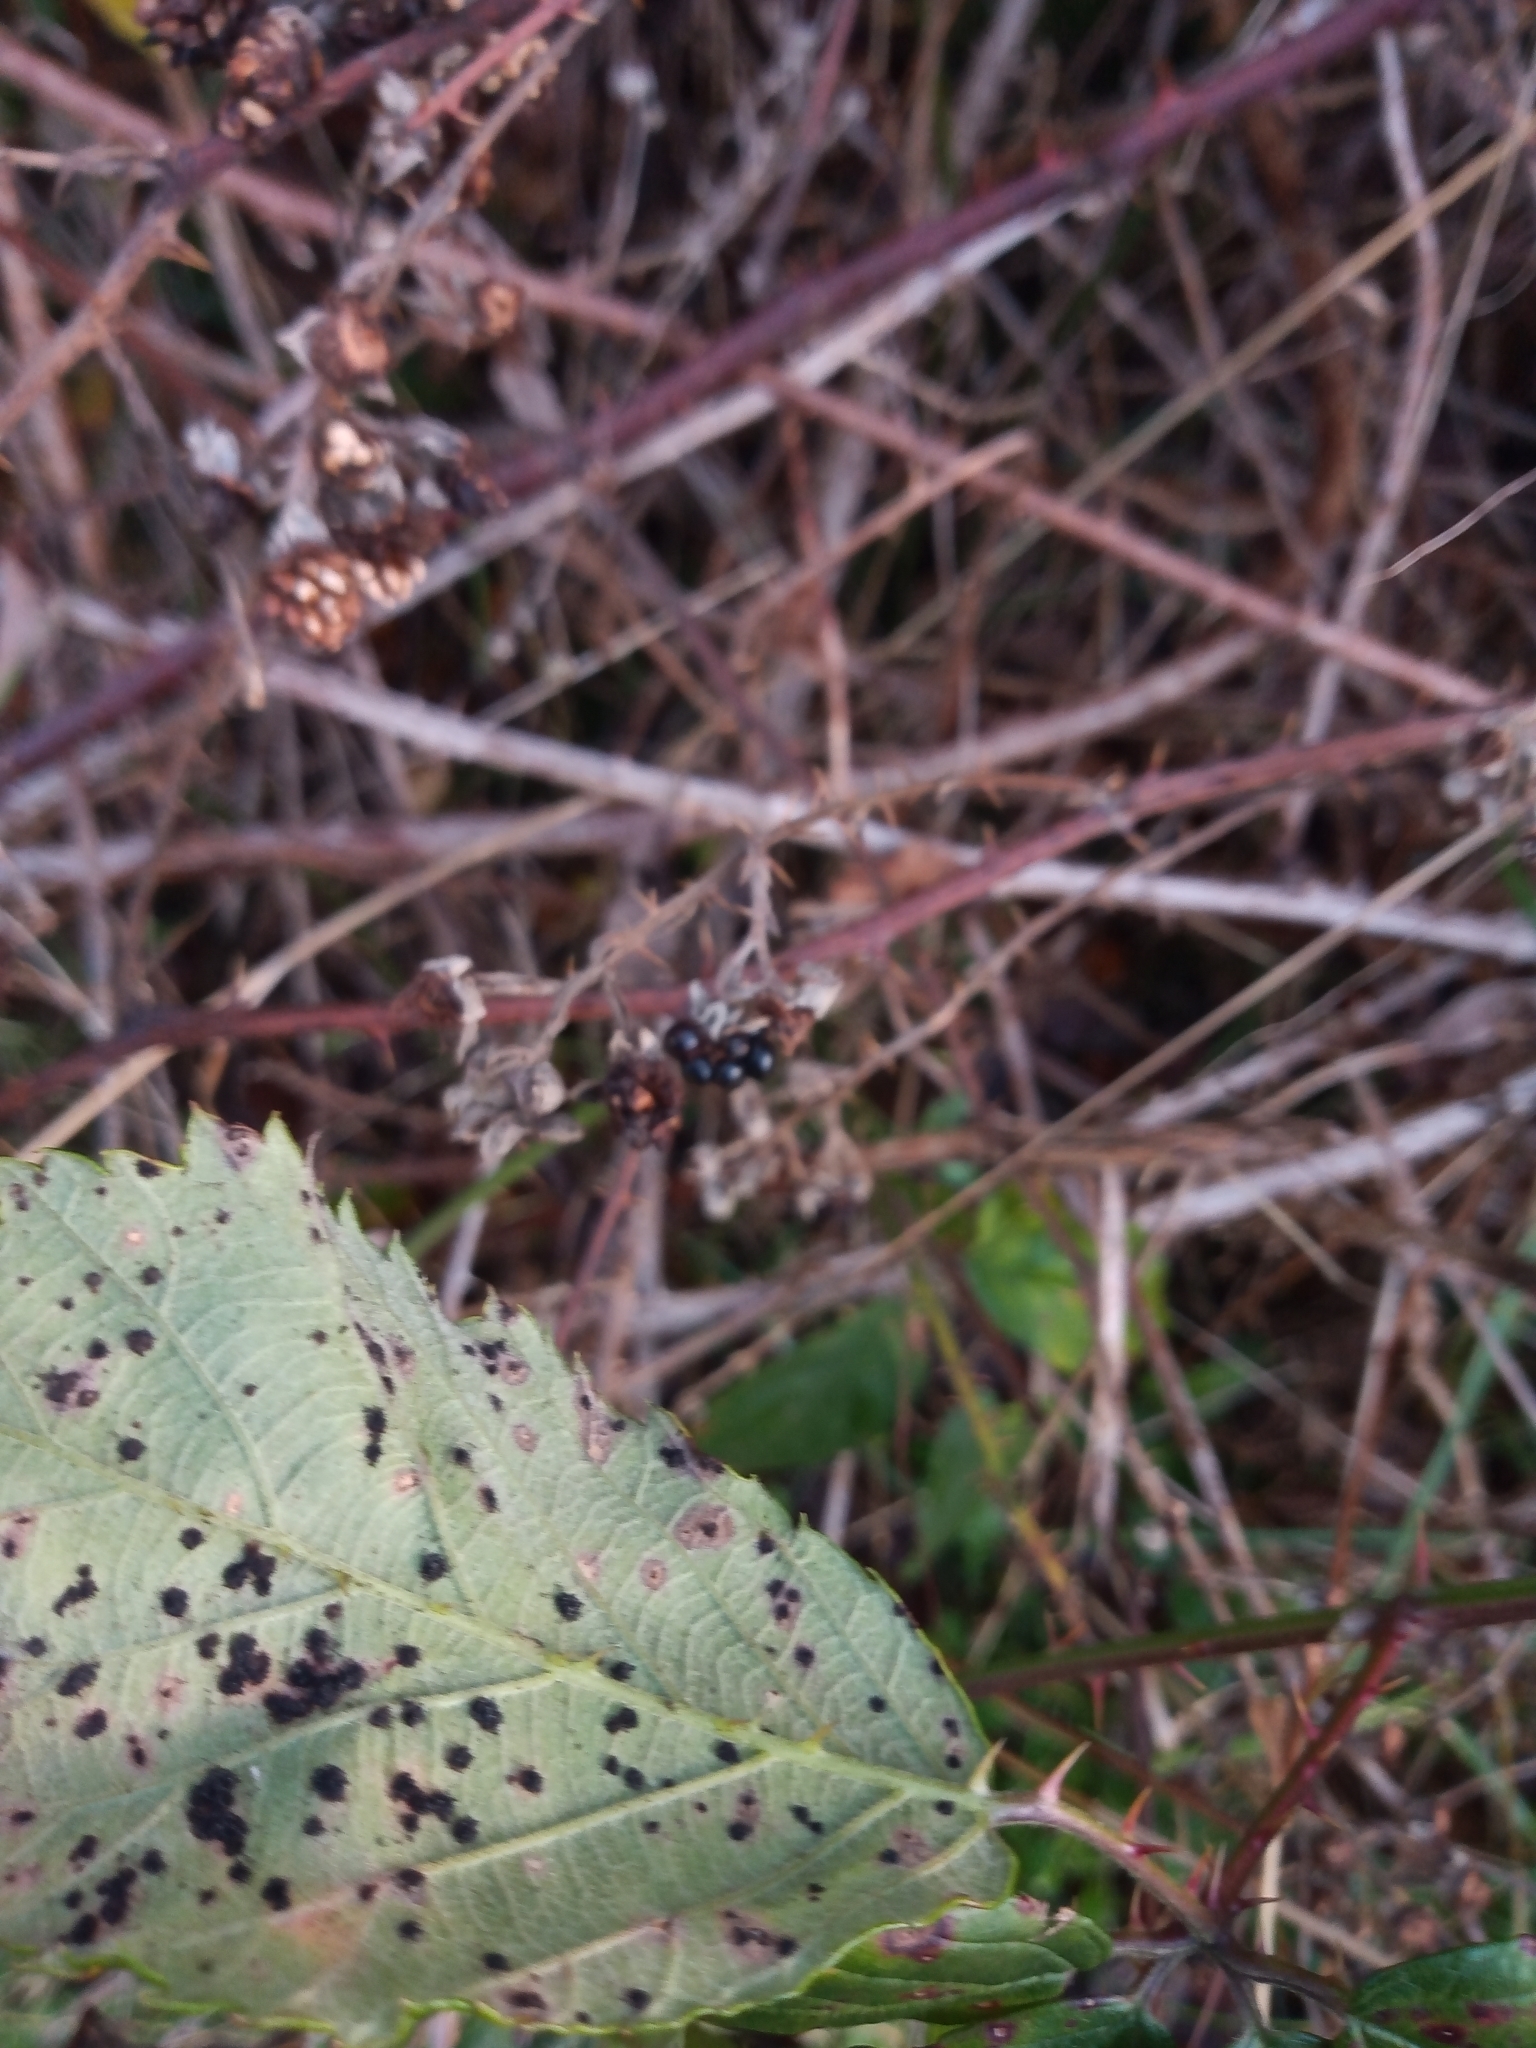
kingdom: Fungi
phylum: Basidiomycota
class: Pucciniomycetes
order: Pucciniales
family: Phragmidiaceae
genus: Phragmidium
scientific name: Phragmidium violaceum
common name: Violet bramble rust
